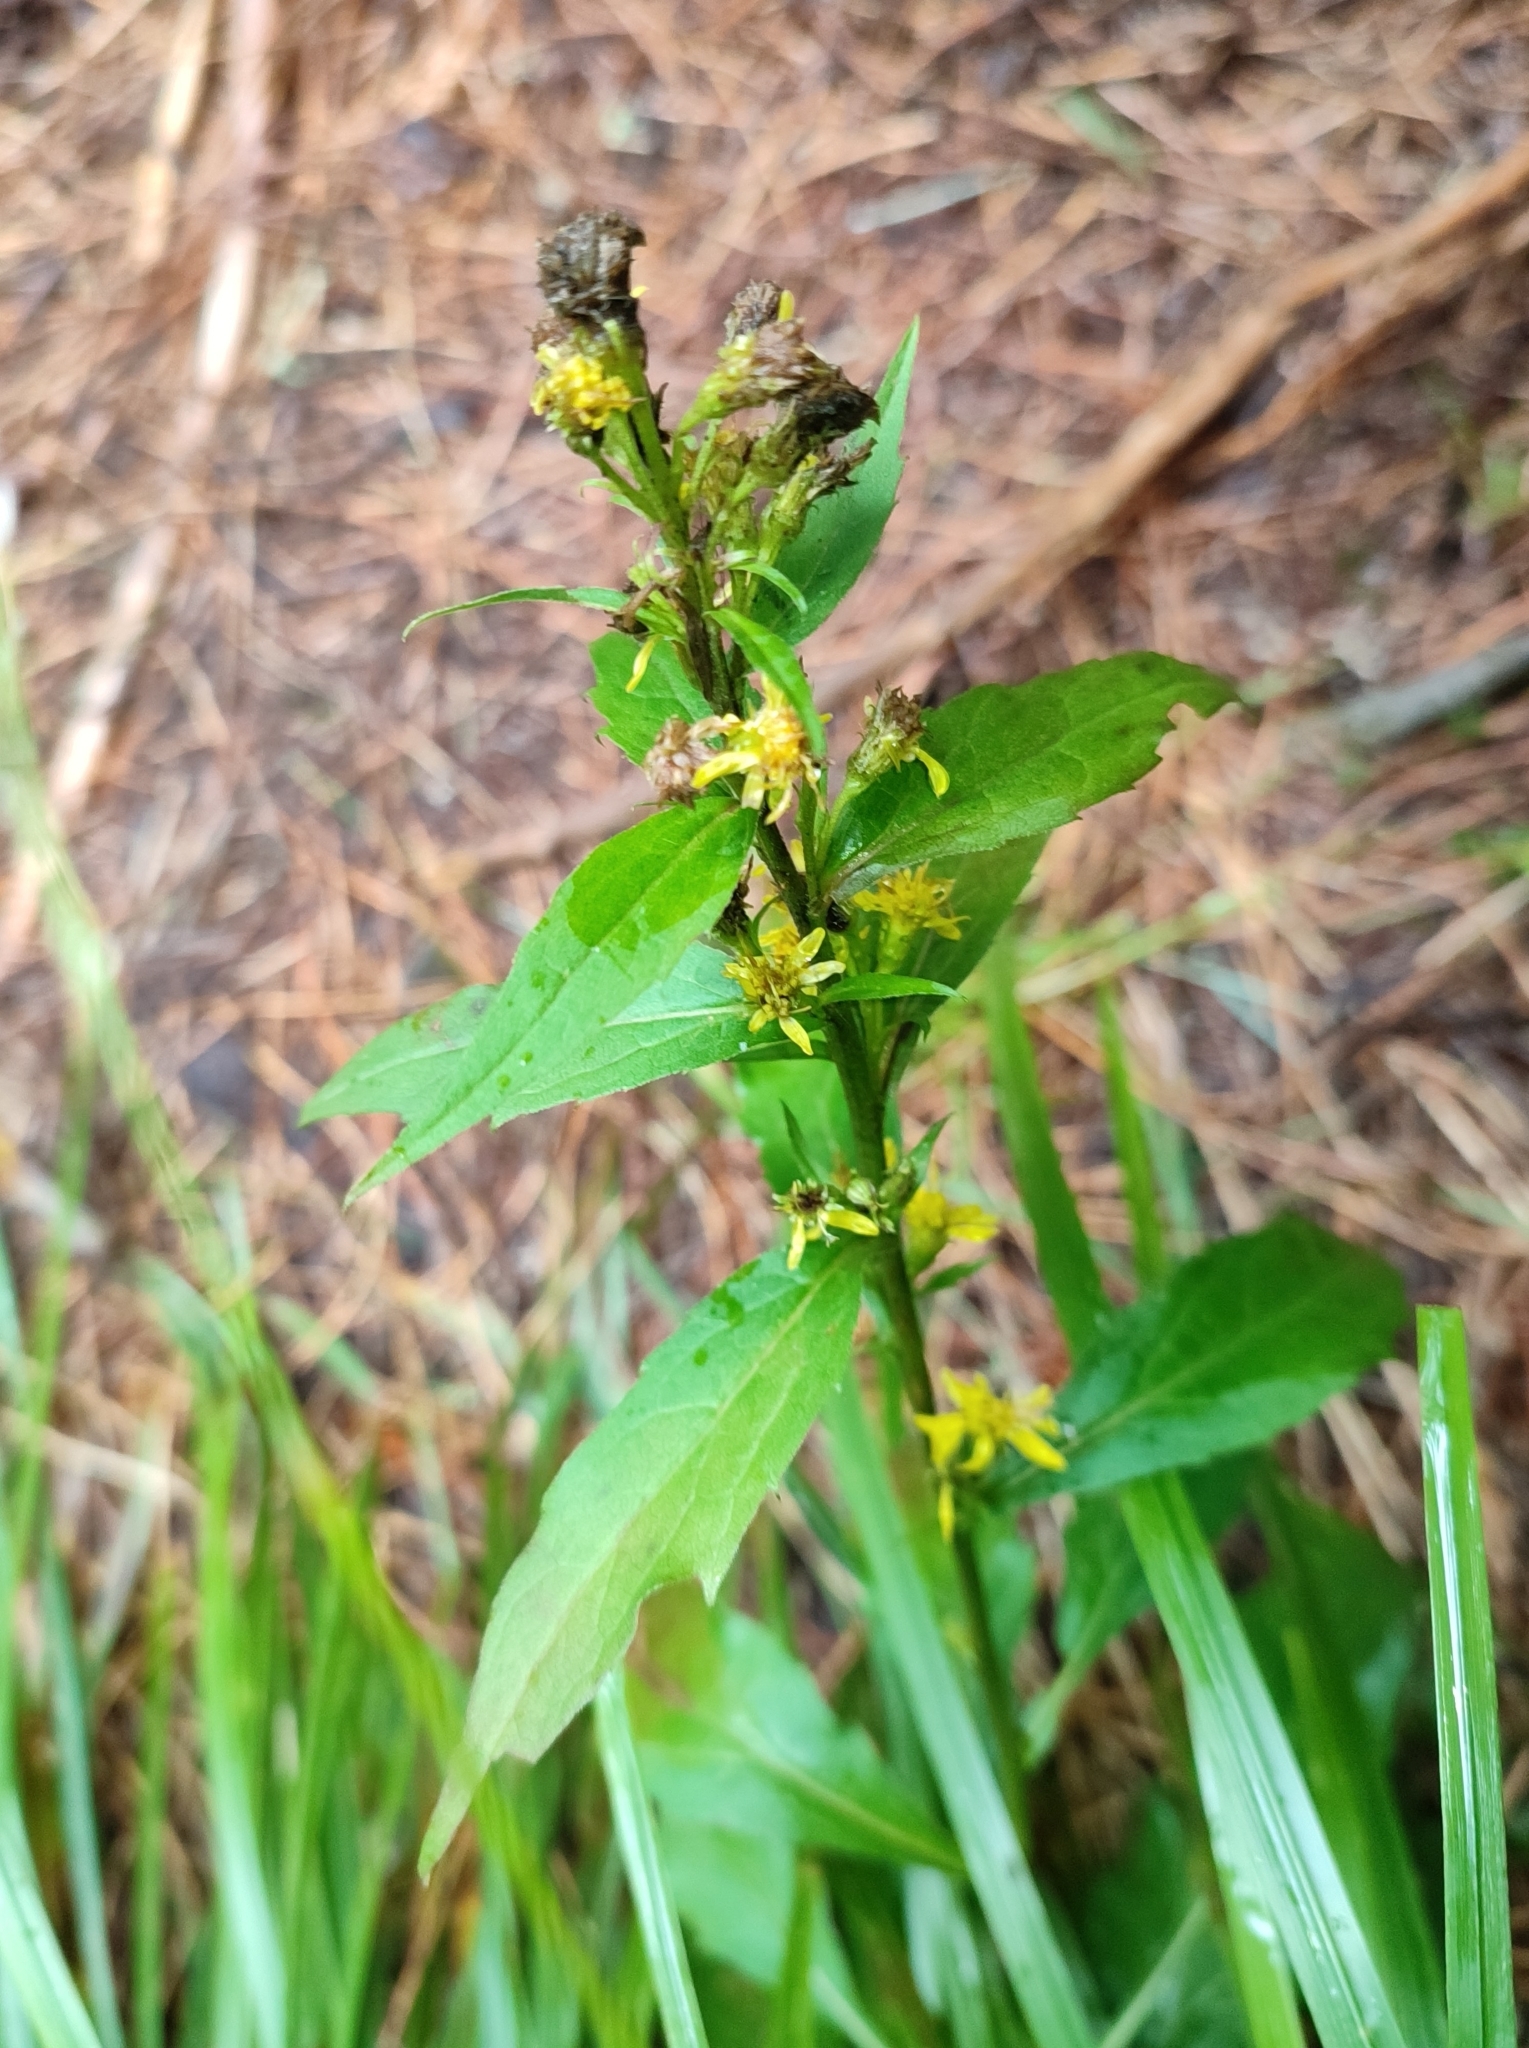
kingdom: Plantae
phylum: Tracheophyta
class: Magnoliopsida
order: Asterales
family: Asteraceae
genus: Solidago
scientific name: Solidago virgaurea
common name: Goldenrod
